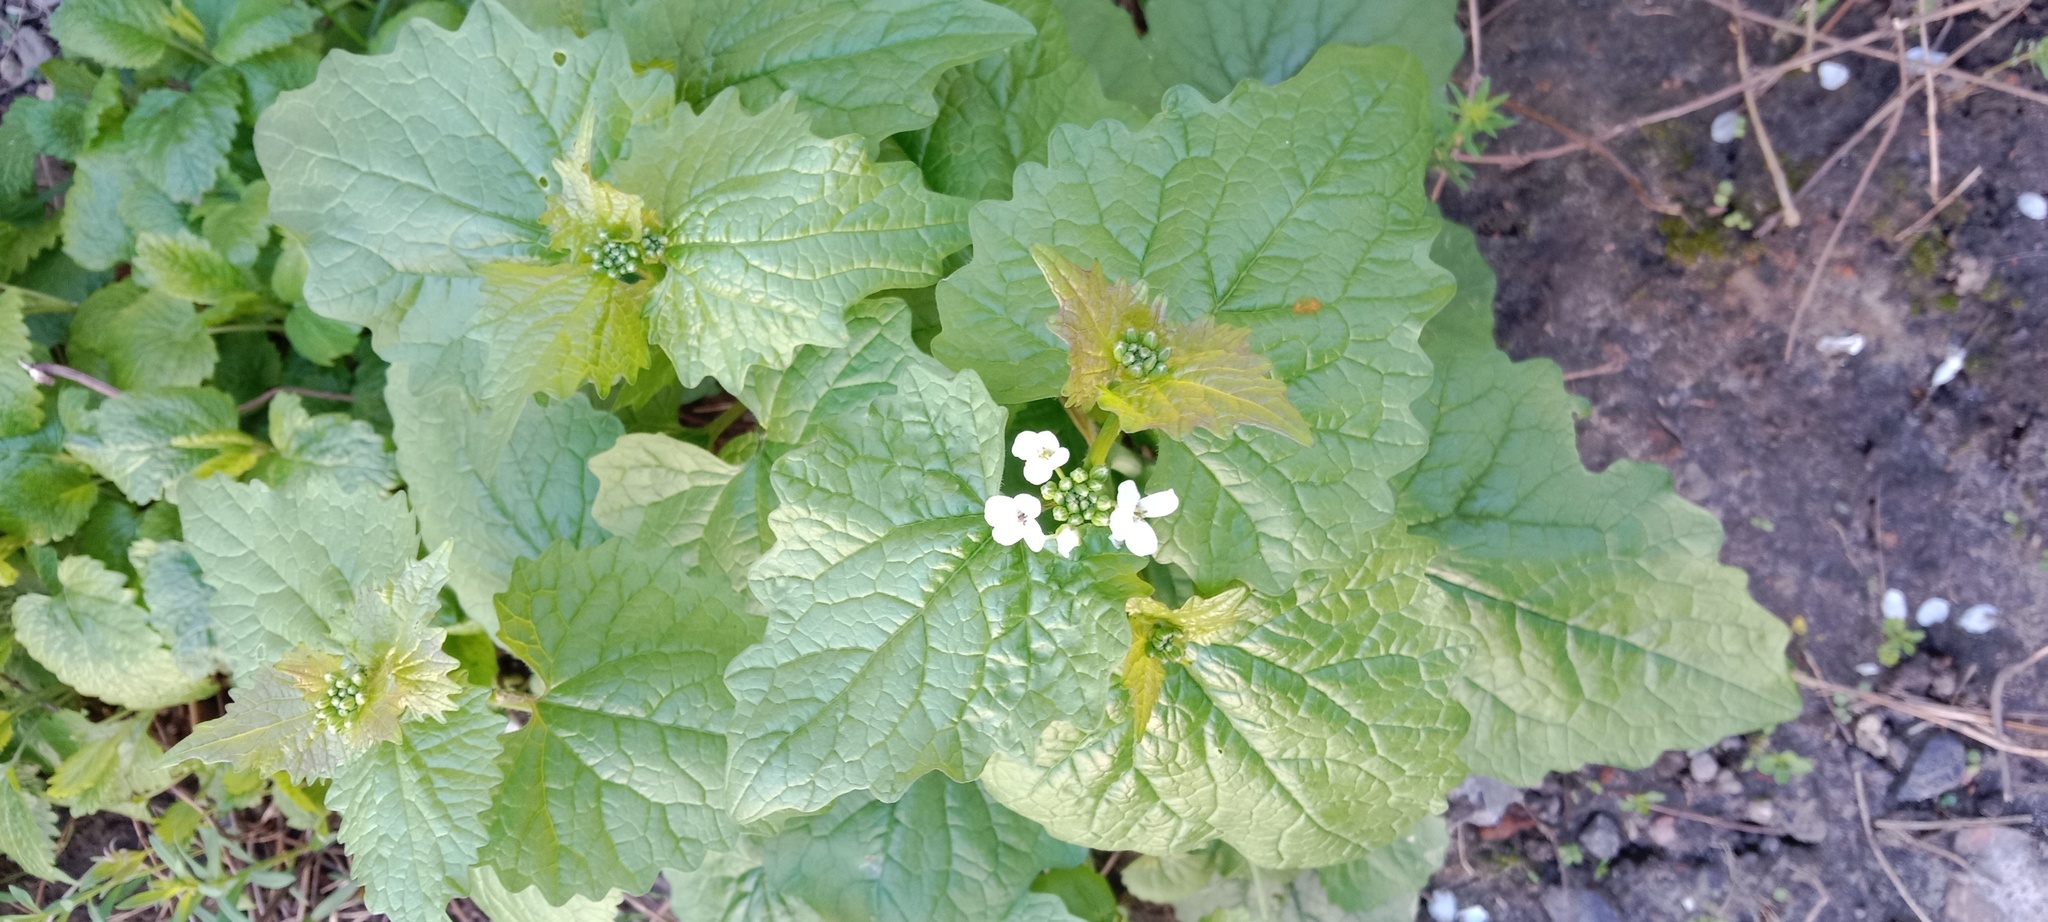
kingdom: Plantae
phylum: Tracheophyta
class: Magnoliopsida
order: Brassicales
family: Brassicaceae
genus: Alliaria
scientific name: Alliaria petiolata
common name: Garlic mustard
